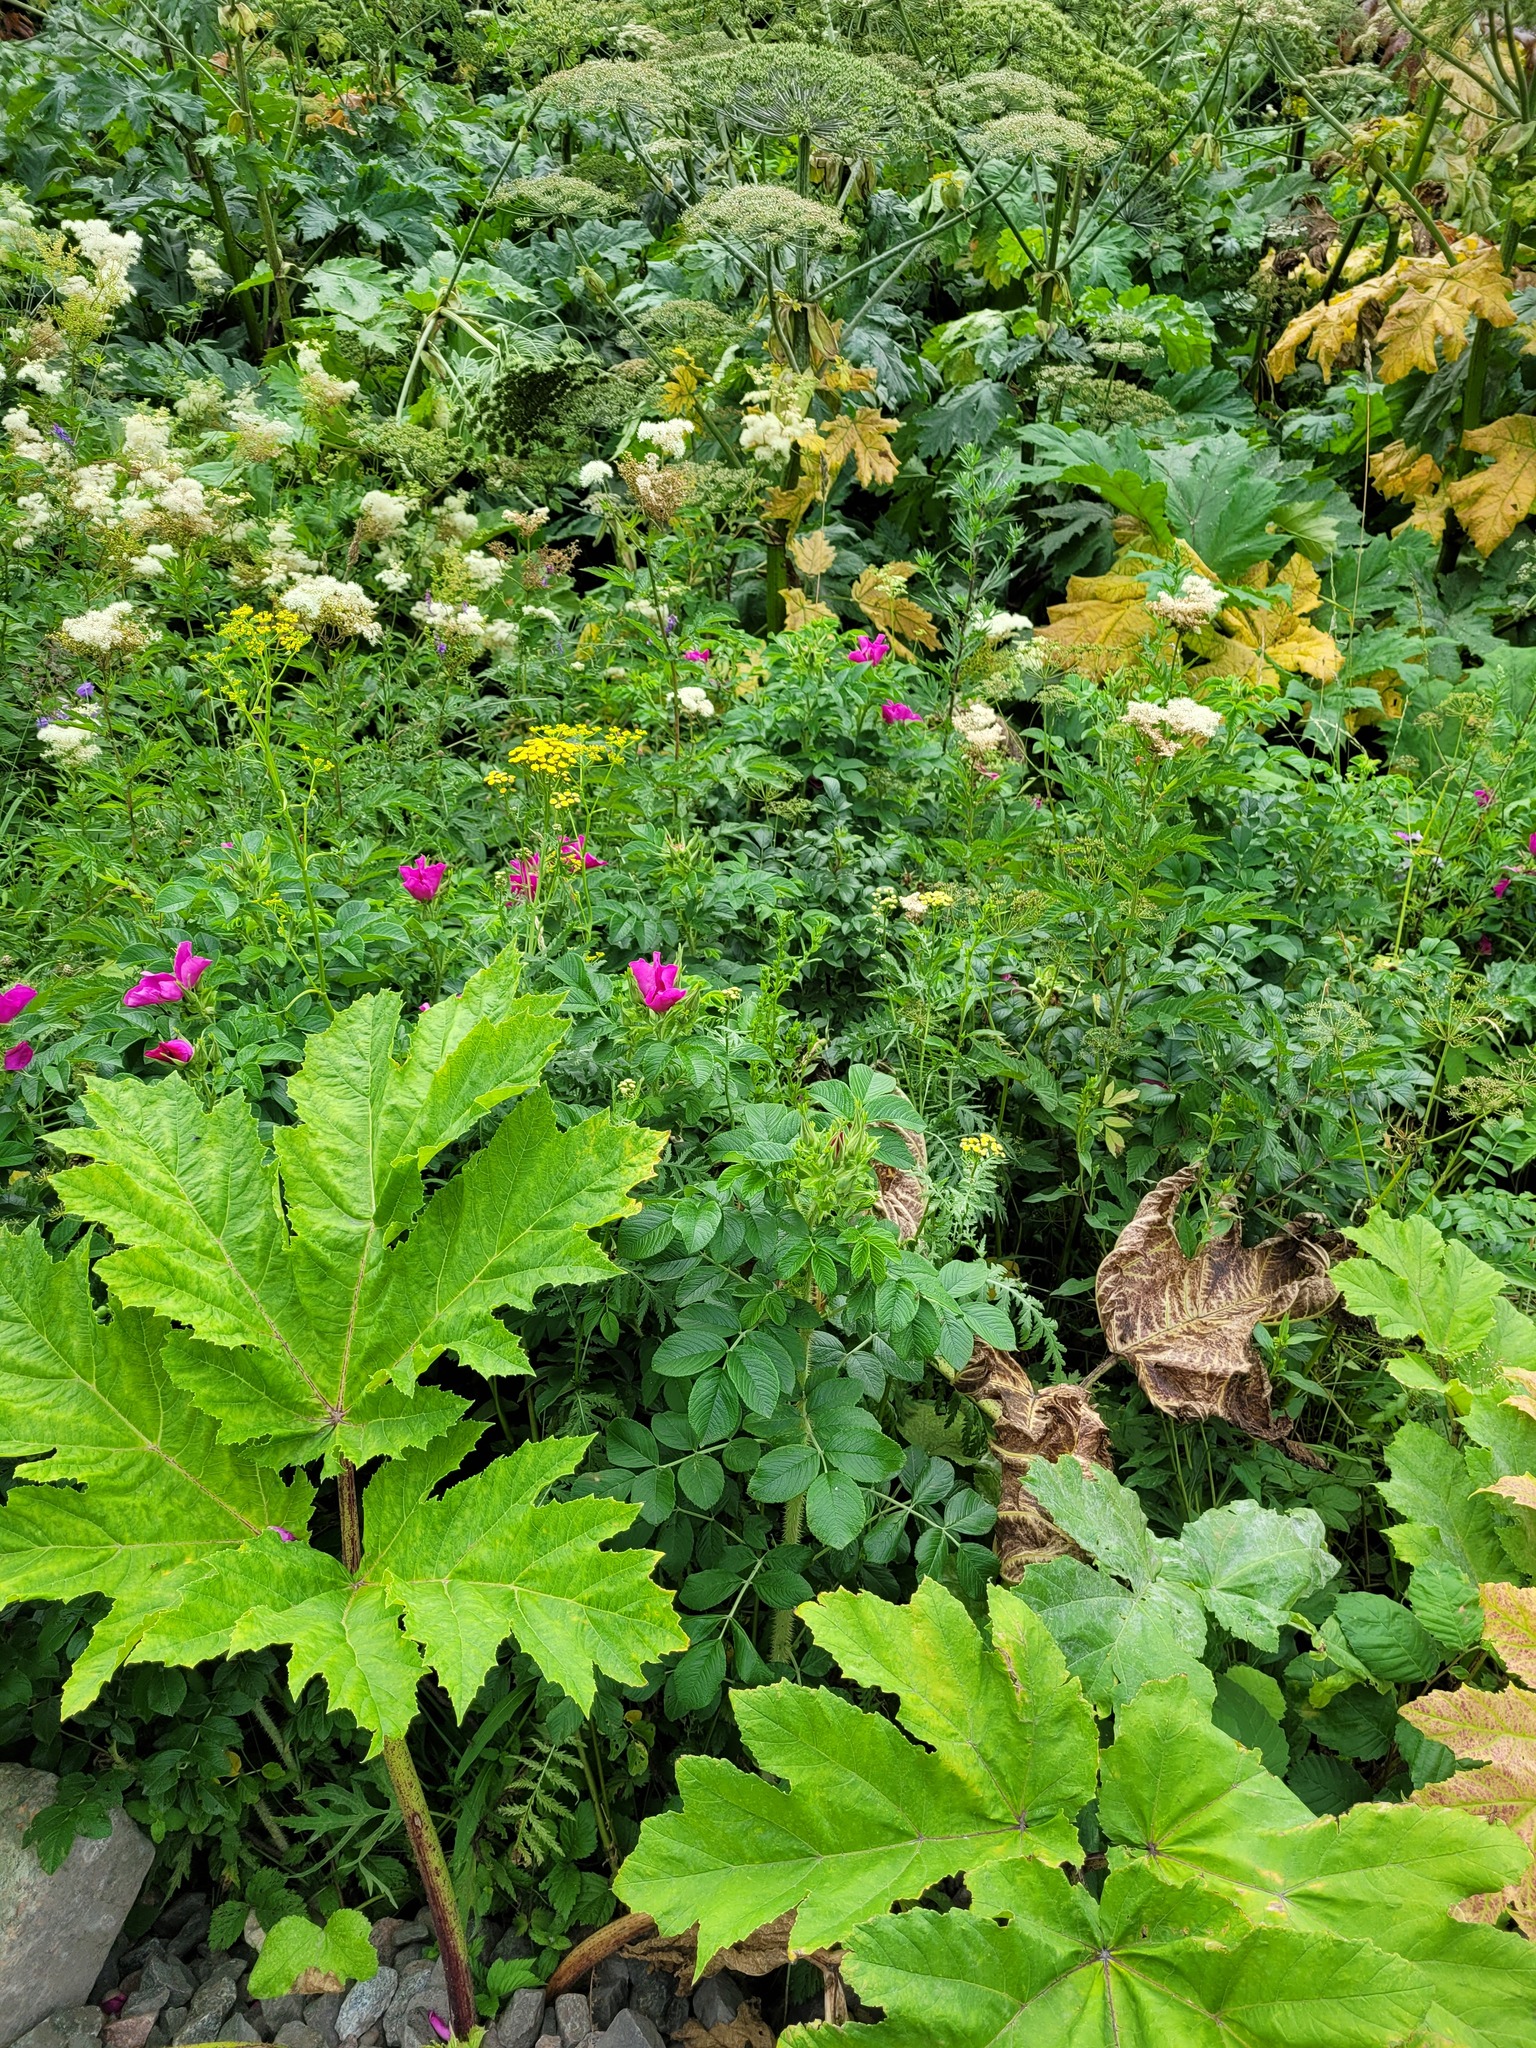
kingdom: Plantae
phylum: Tracheophyta
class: Magnoliopsida
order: Rosales
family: Rosaceae
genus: Rosa
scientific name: Rosa rugosa
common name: Japanese rose
